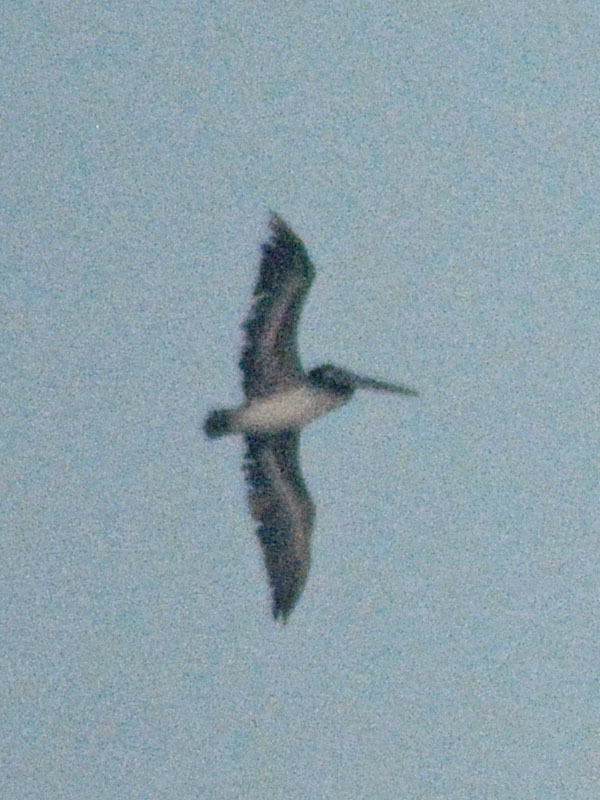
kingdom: Animalia
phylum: Chordata
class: Aves
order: Pelecaniformes
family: Pelecanidae
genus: Pelecanus
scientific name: Pelecanus occidentalis
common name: Brown pelican
